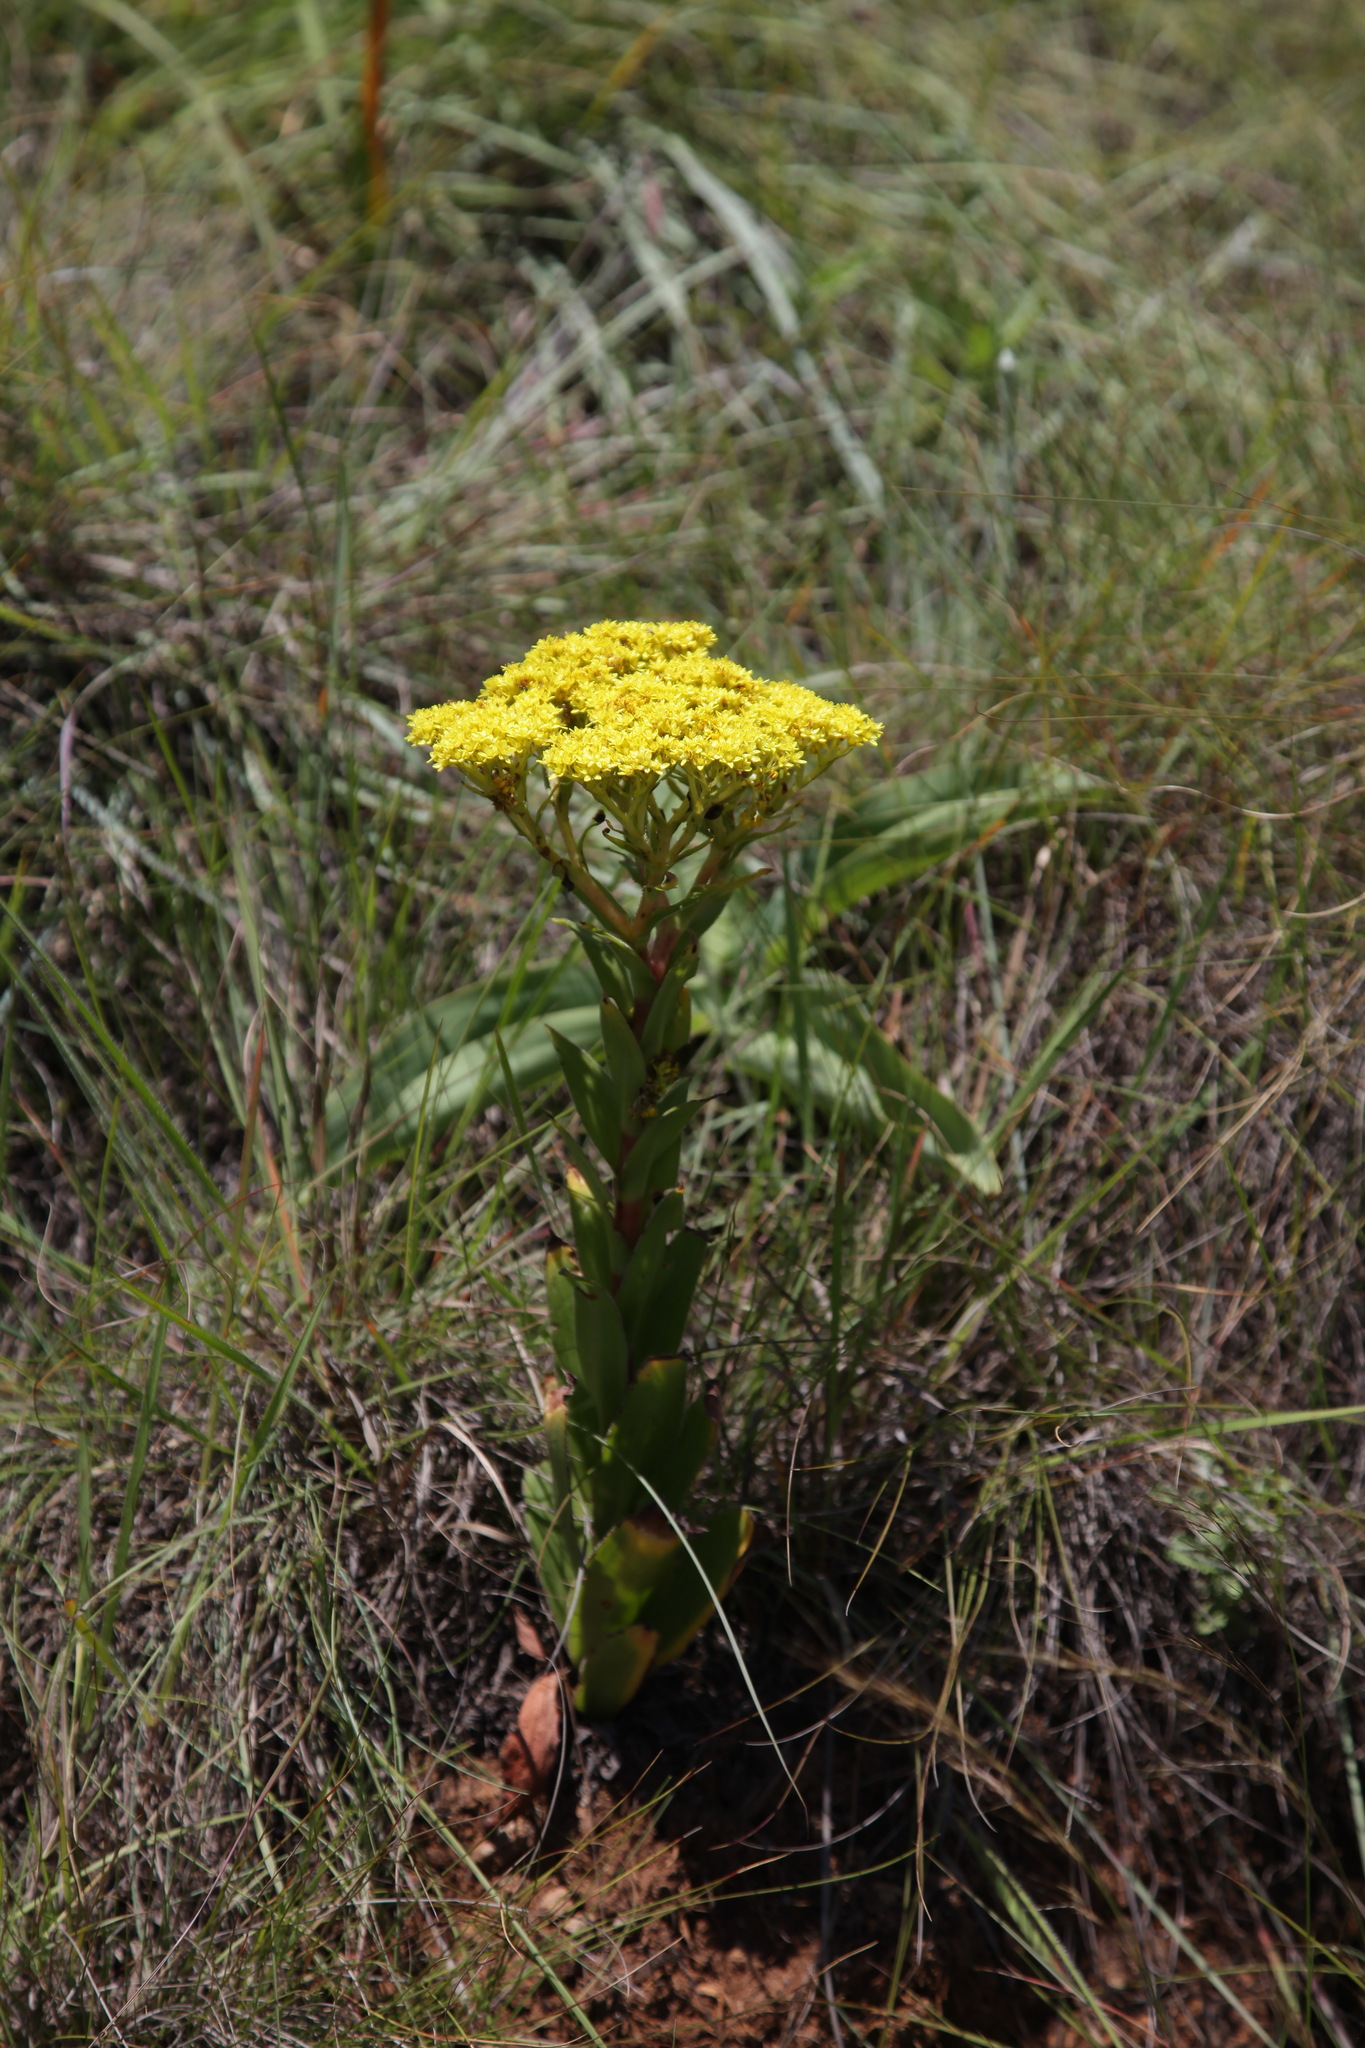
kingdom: Plantae
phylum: Tracheophyta
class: Magnoliopsida
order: Saxifragales
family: Crassulaceae
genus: Crassula
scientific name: Crassula vaginata
